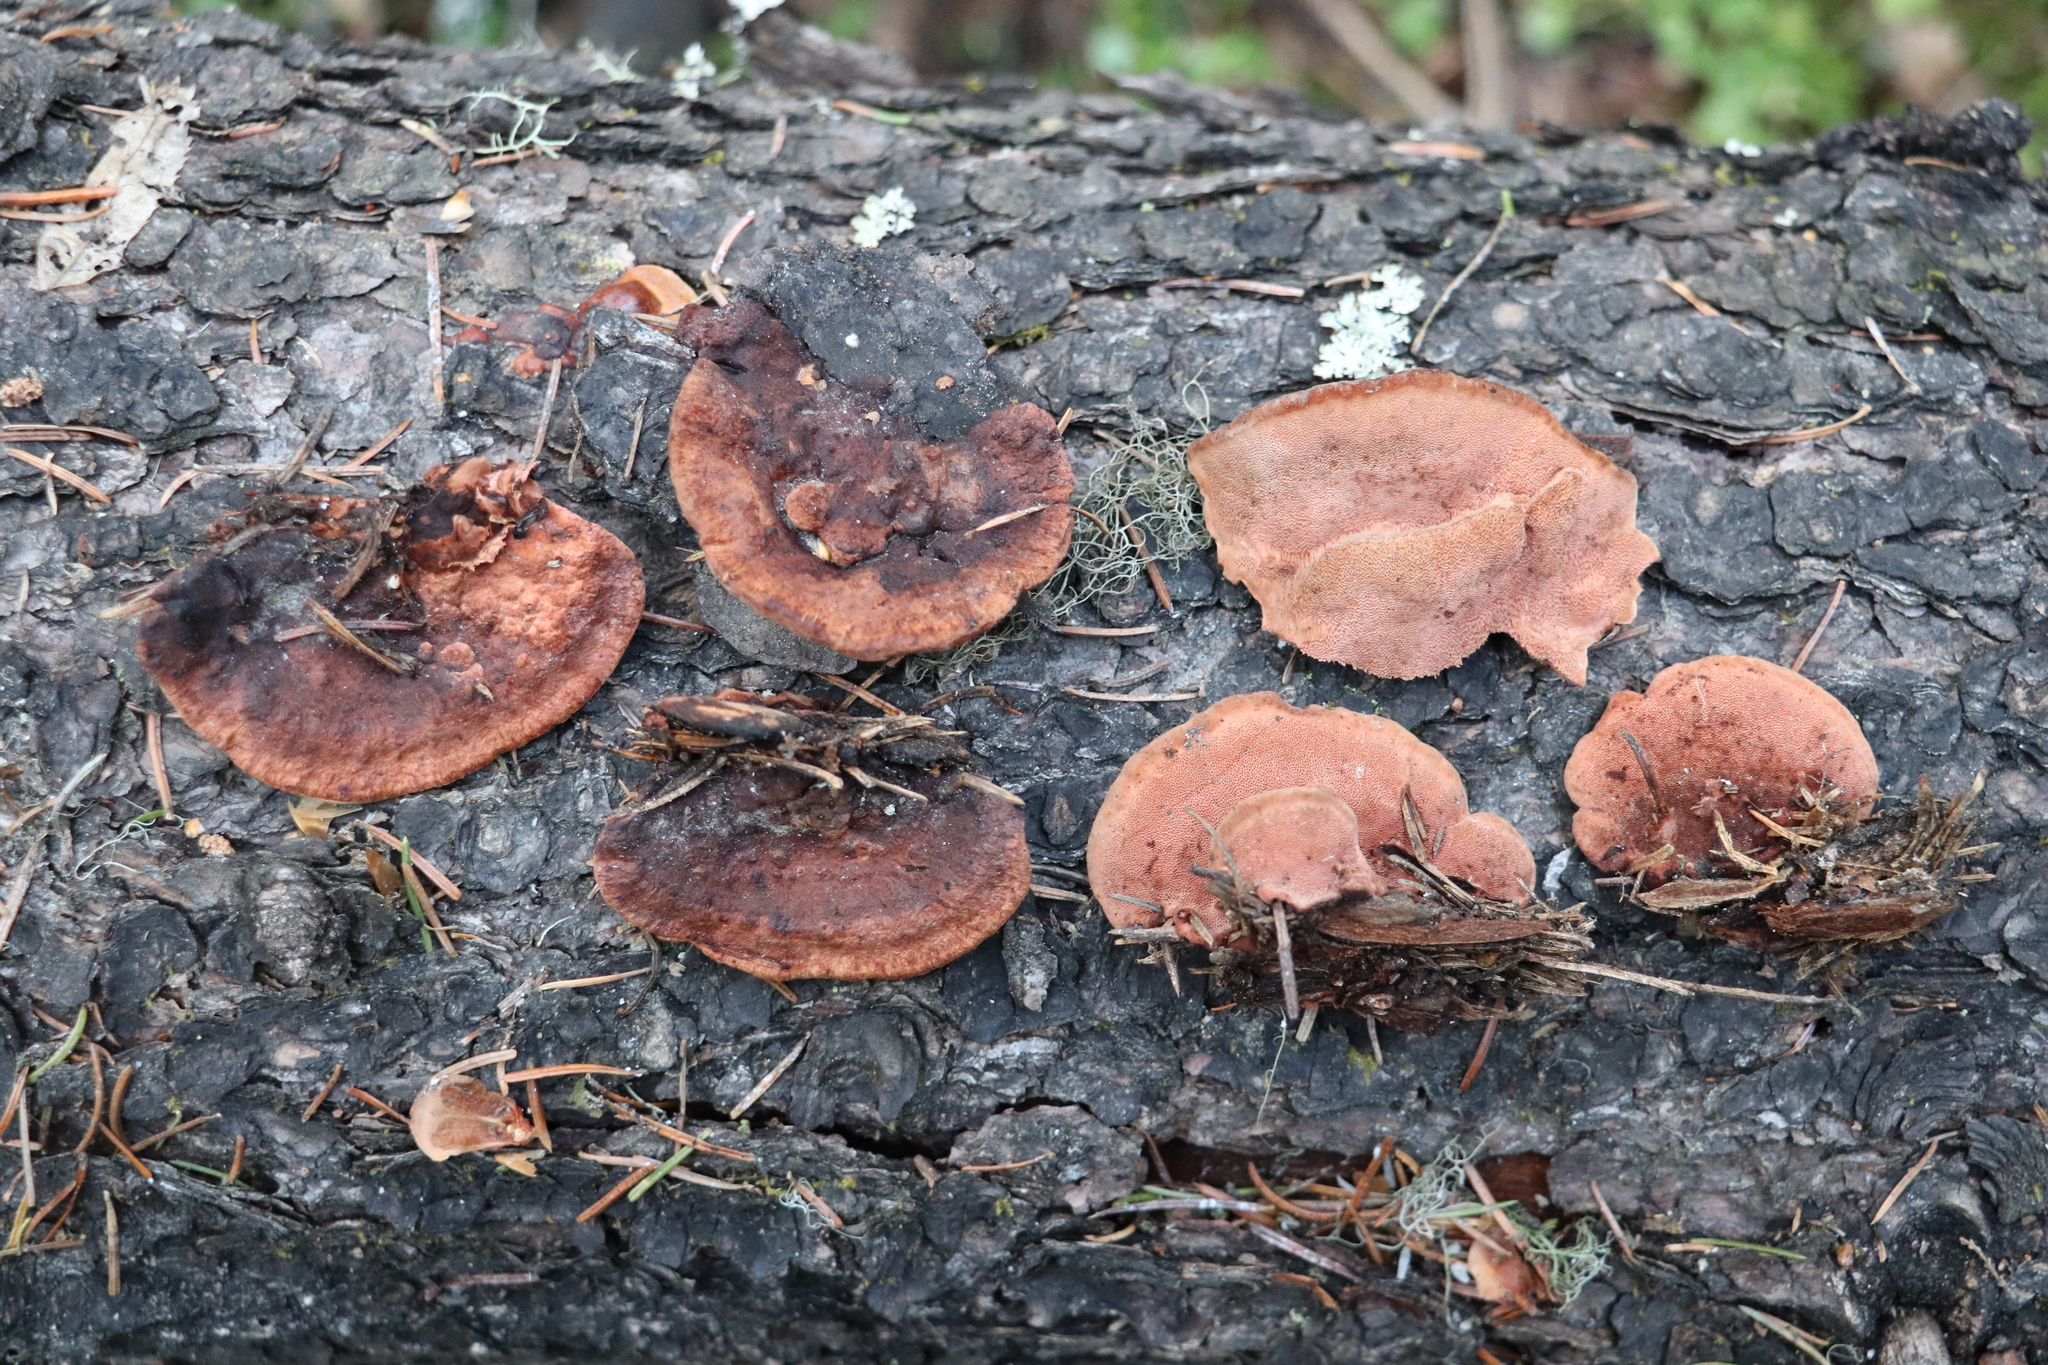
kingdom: Fungi
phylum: Basidiomycota
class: Agaricomycetes
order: Hymenochaetales
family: Hymenochaetaceae
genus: Phellinus
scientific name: Phellinus viticola
